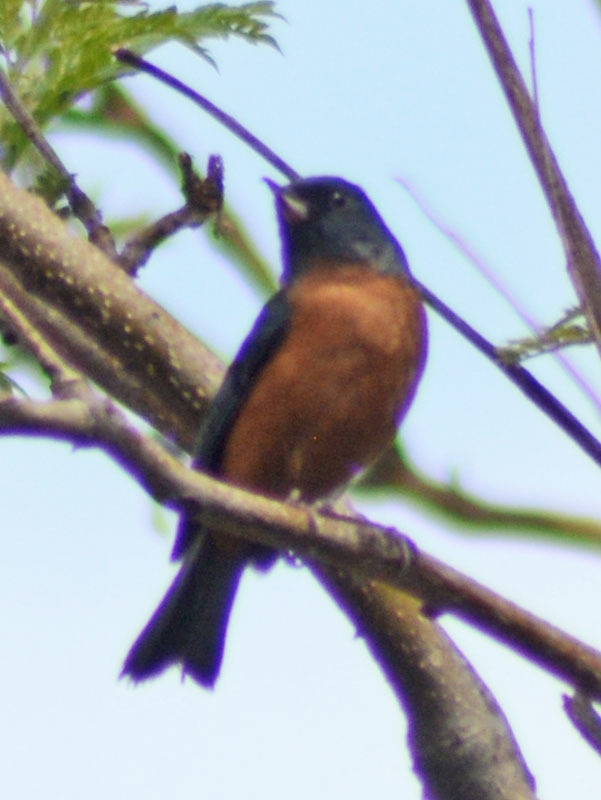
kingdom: Animalia
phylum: Chordata
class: Aves
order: Passeriformes
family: Thraupidae
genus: Diglossa
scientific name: Diglossa baritula
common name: Cinnamon-bellied flowerpiercer
